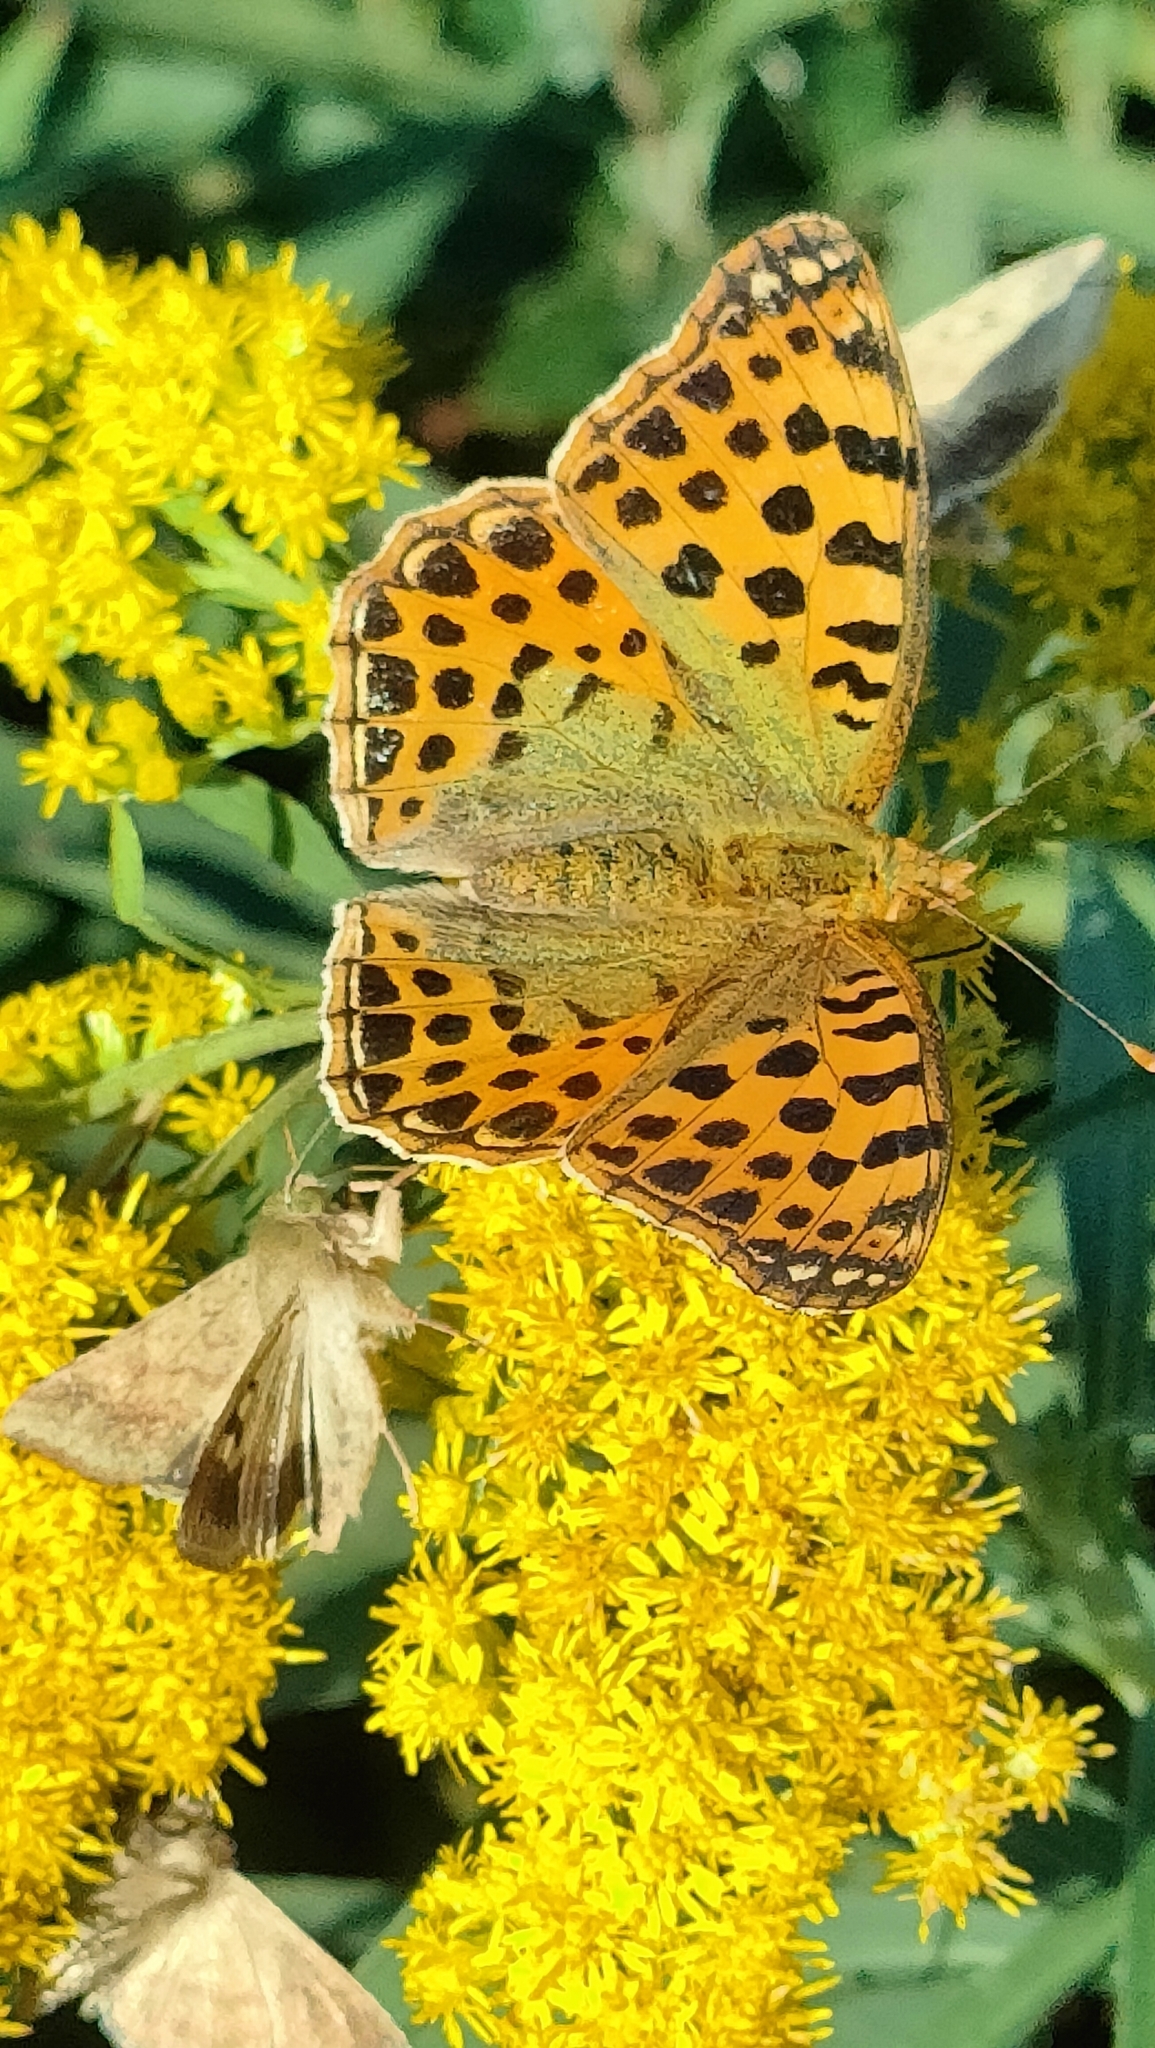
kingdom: Animalia
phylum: Arthropoda
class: Insecta
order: Lepidoptera
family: Nymphalidae
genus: Issoria
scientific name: Issoria lathonia
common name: Queen of spain fritillary
